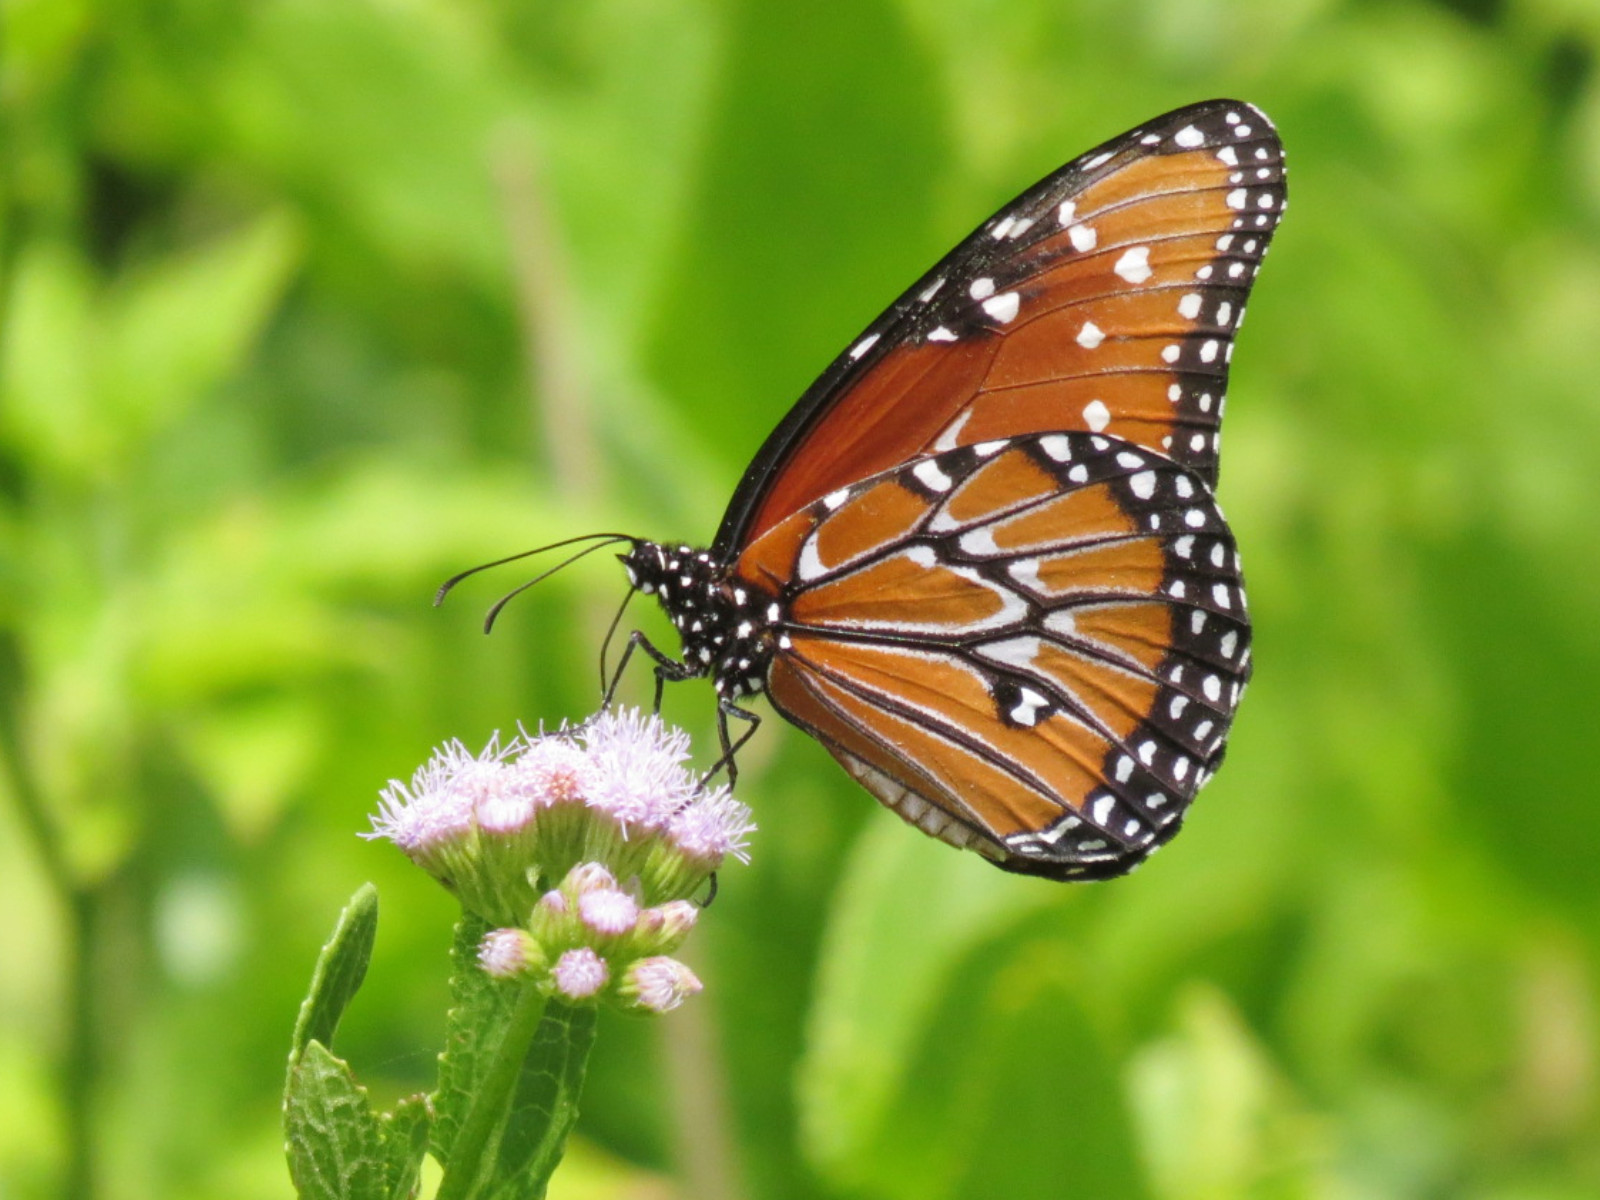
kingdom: Animalia
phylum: Arthropoda
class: Insecta
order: Lepidoptera
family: Nymphalidae
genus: Danaus
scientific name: Danaus gilippus
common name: Queen
